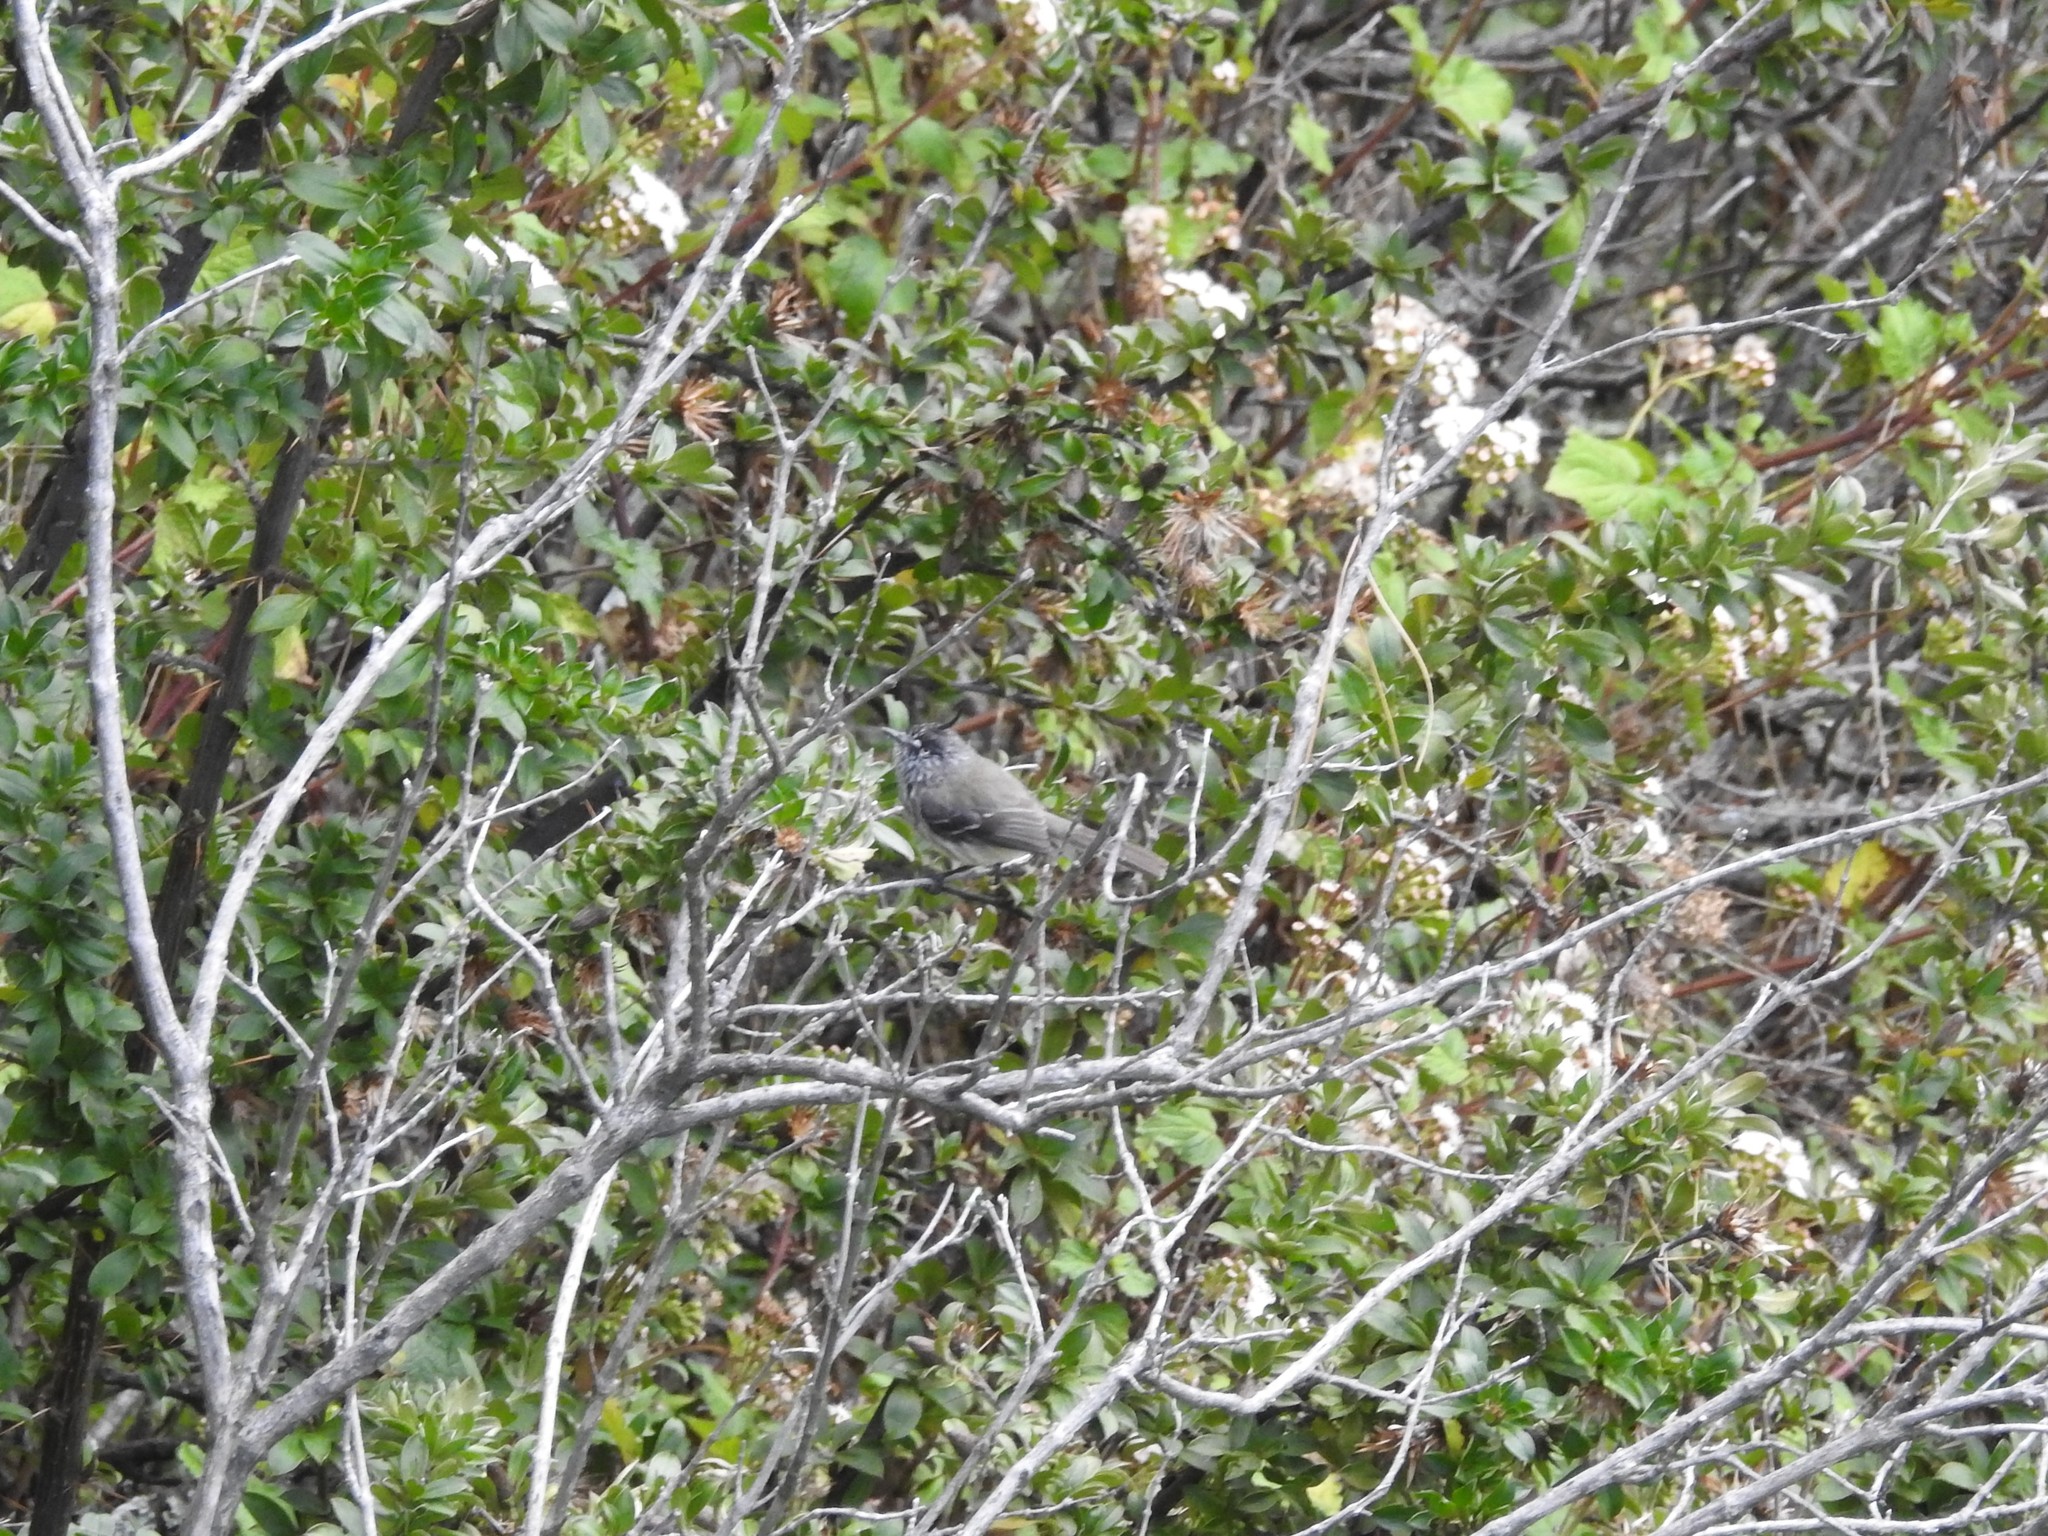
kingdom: Animalia
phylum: Chordata
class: Aves
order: Passeriformes
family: Tyrannidae
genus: Anairetes
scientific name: Anairetes parulus
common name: Tufted tit-tyrant
